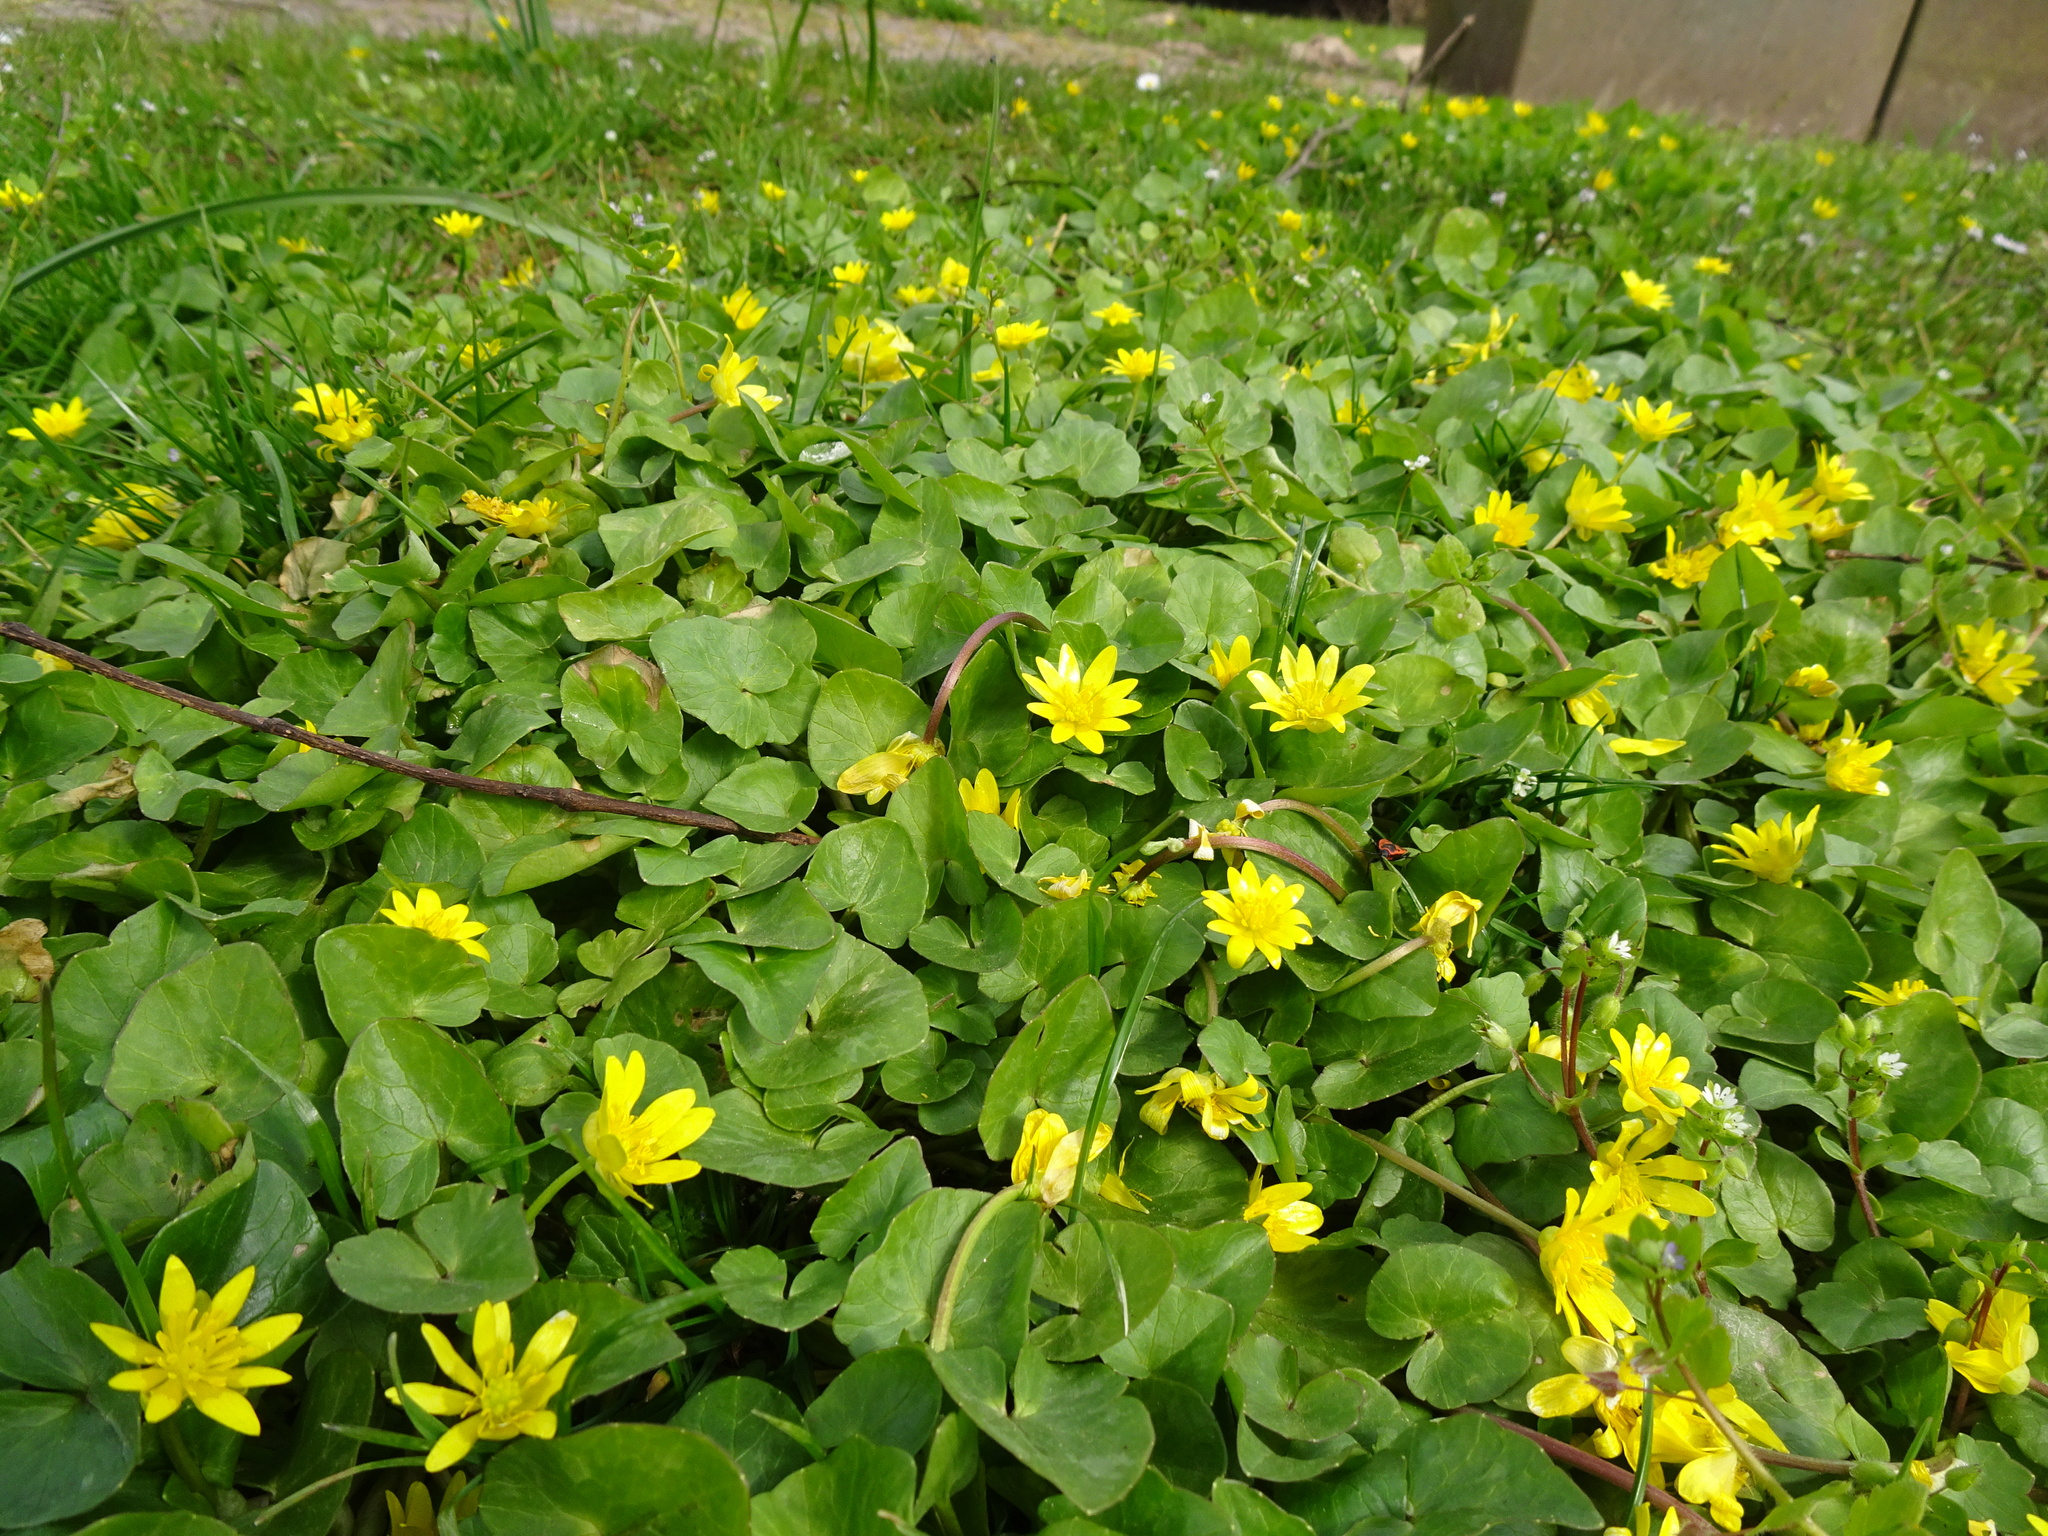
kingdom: Plantae
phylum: Tracheophyta
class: Magnoliopsida
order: Ranunculales
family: Ranunculaceae
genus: Ficaria
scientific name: Ficaria verna
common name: Lesser celandine
